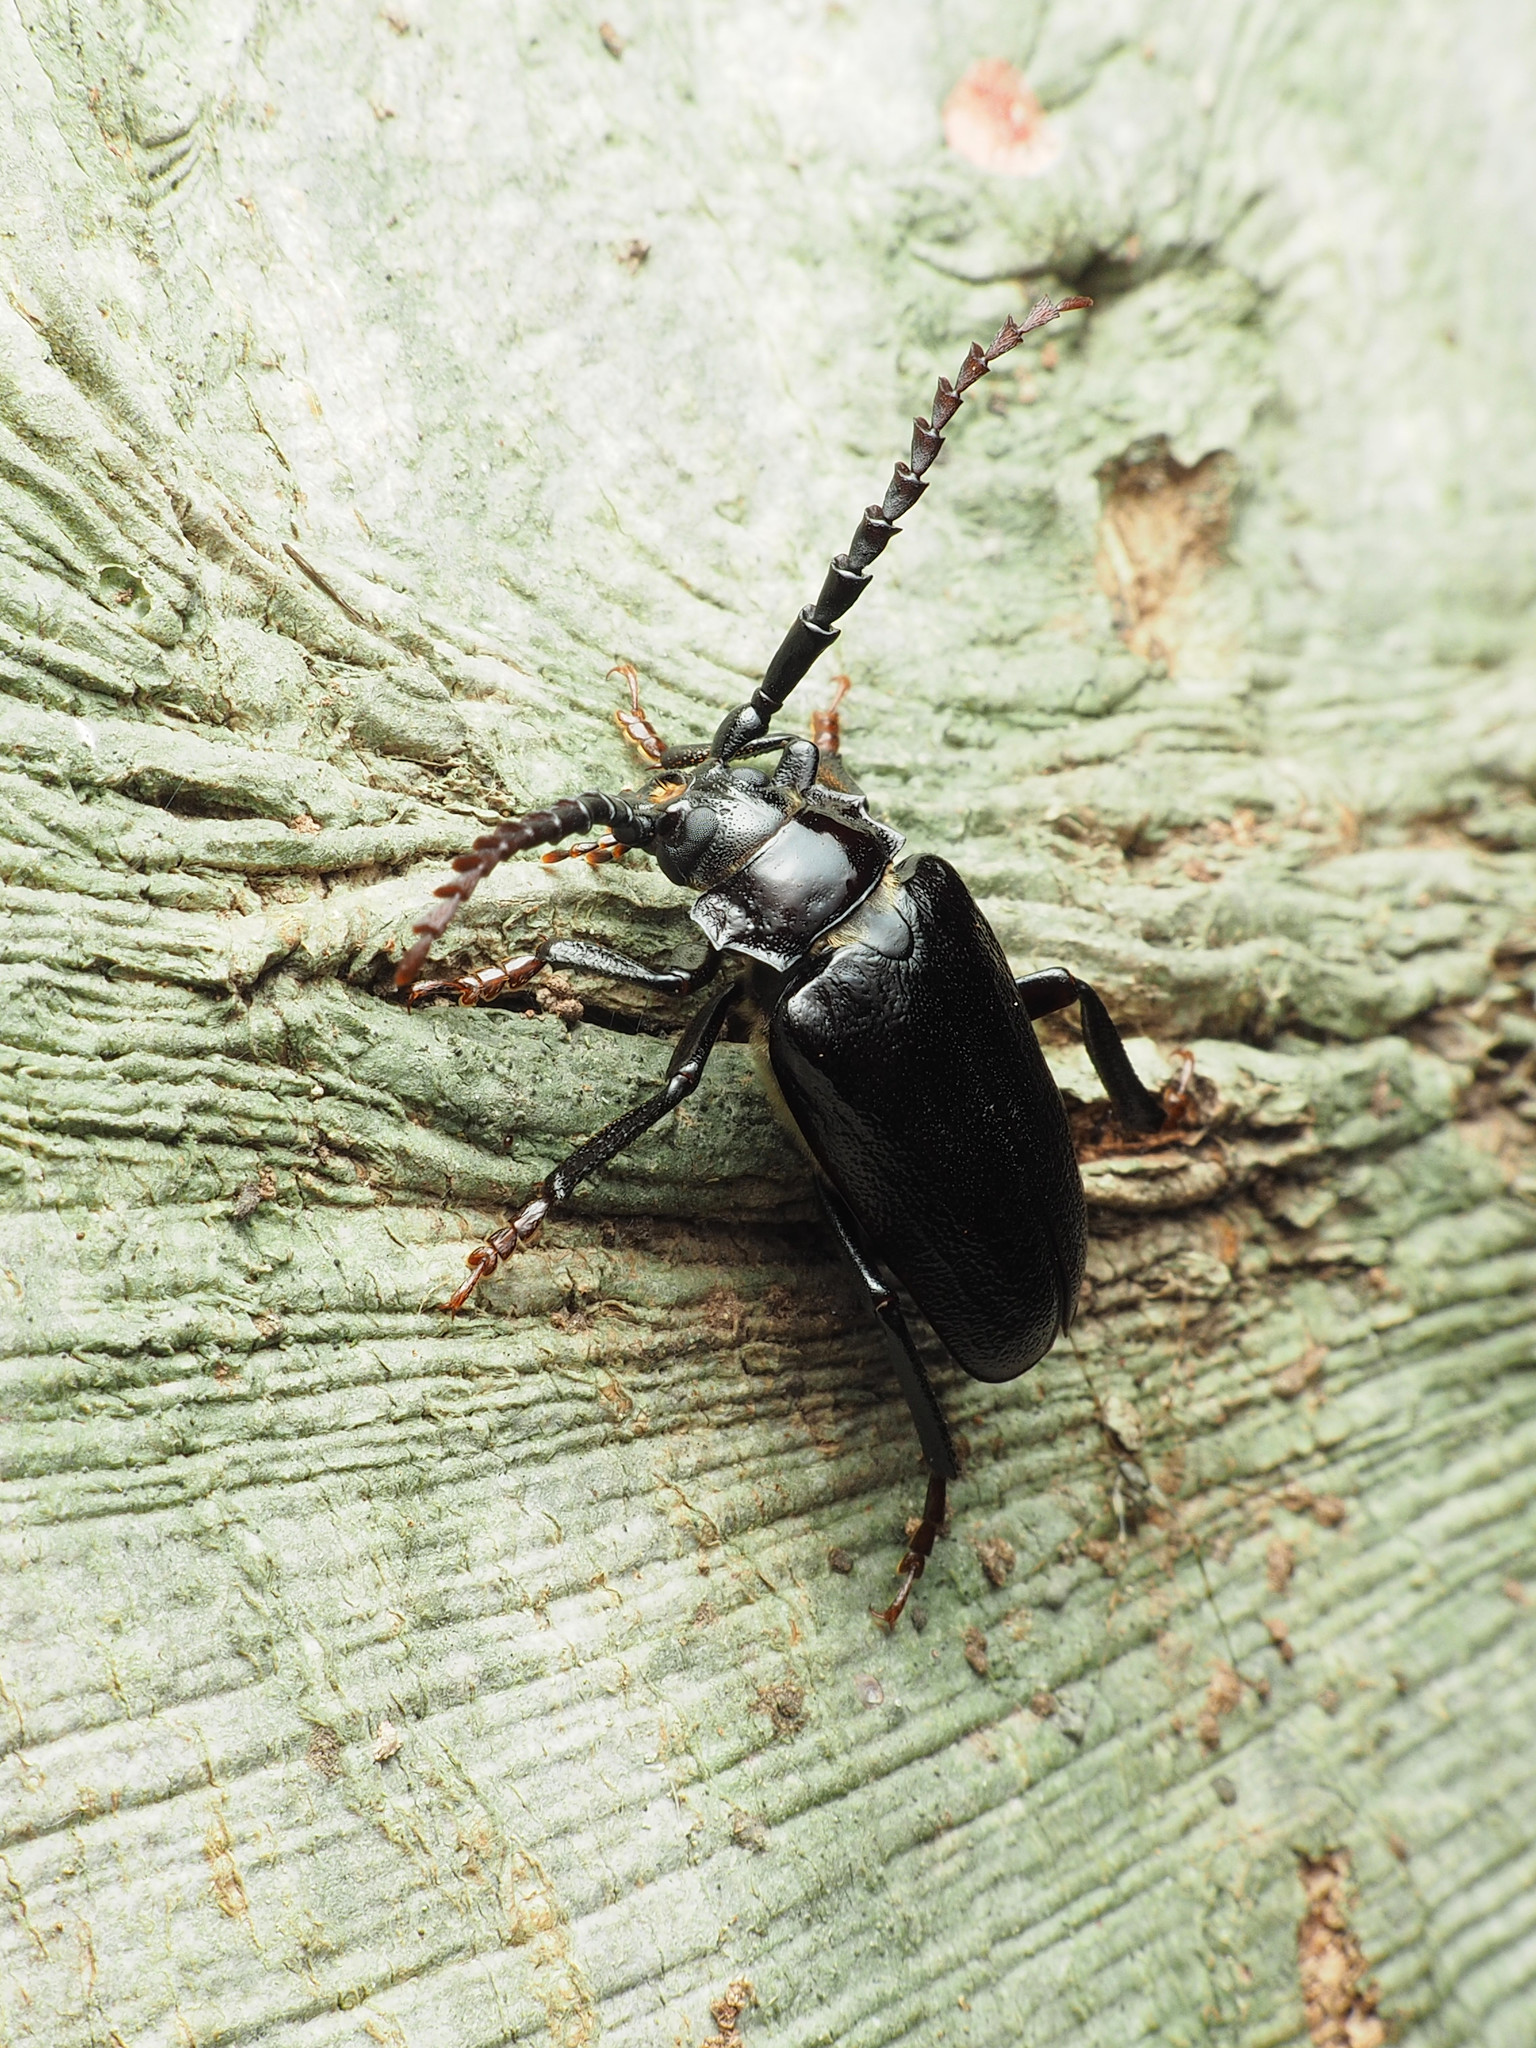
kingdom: Animalia
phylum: Arthropoda
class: Insecta
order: Coleoptera
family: Cerambycidae
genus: Prionus
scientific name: Prionus laticollis
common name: Broad necked prionus
